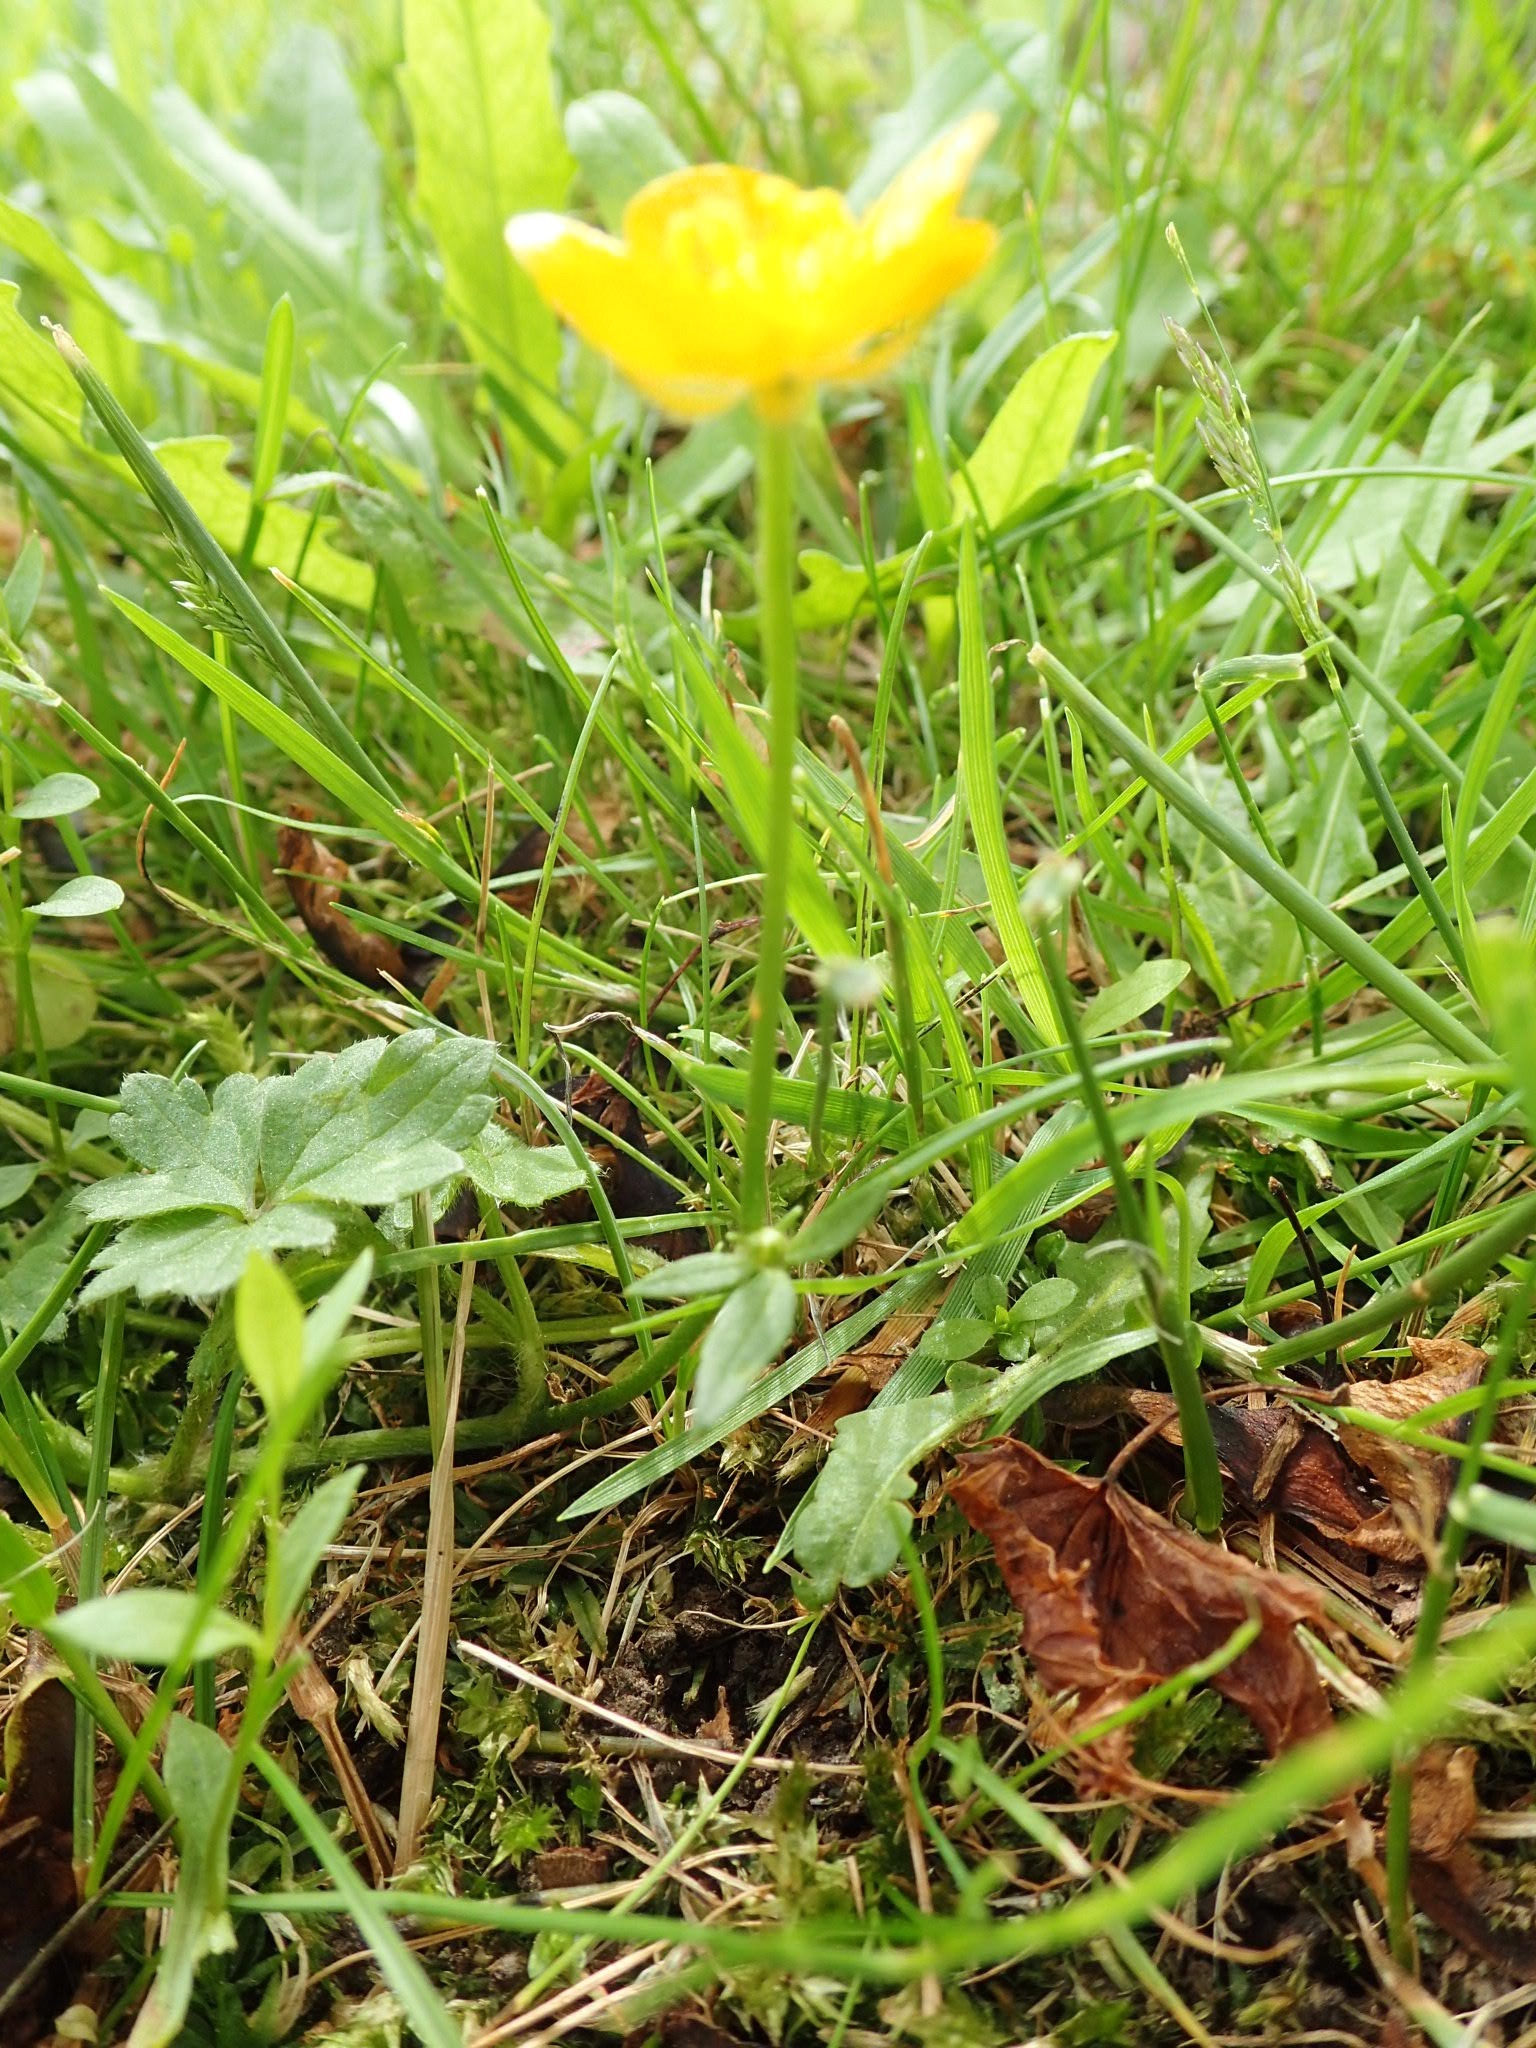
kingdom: Plantae
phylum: Tracheophyta
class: Magnoliopsida
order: Ranunculales
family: Ranunculaceae
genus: Ranunculus
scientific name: Ranunculus repens
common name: Creeping buttercup
